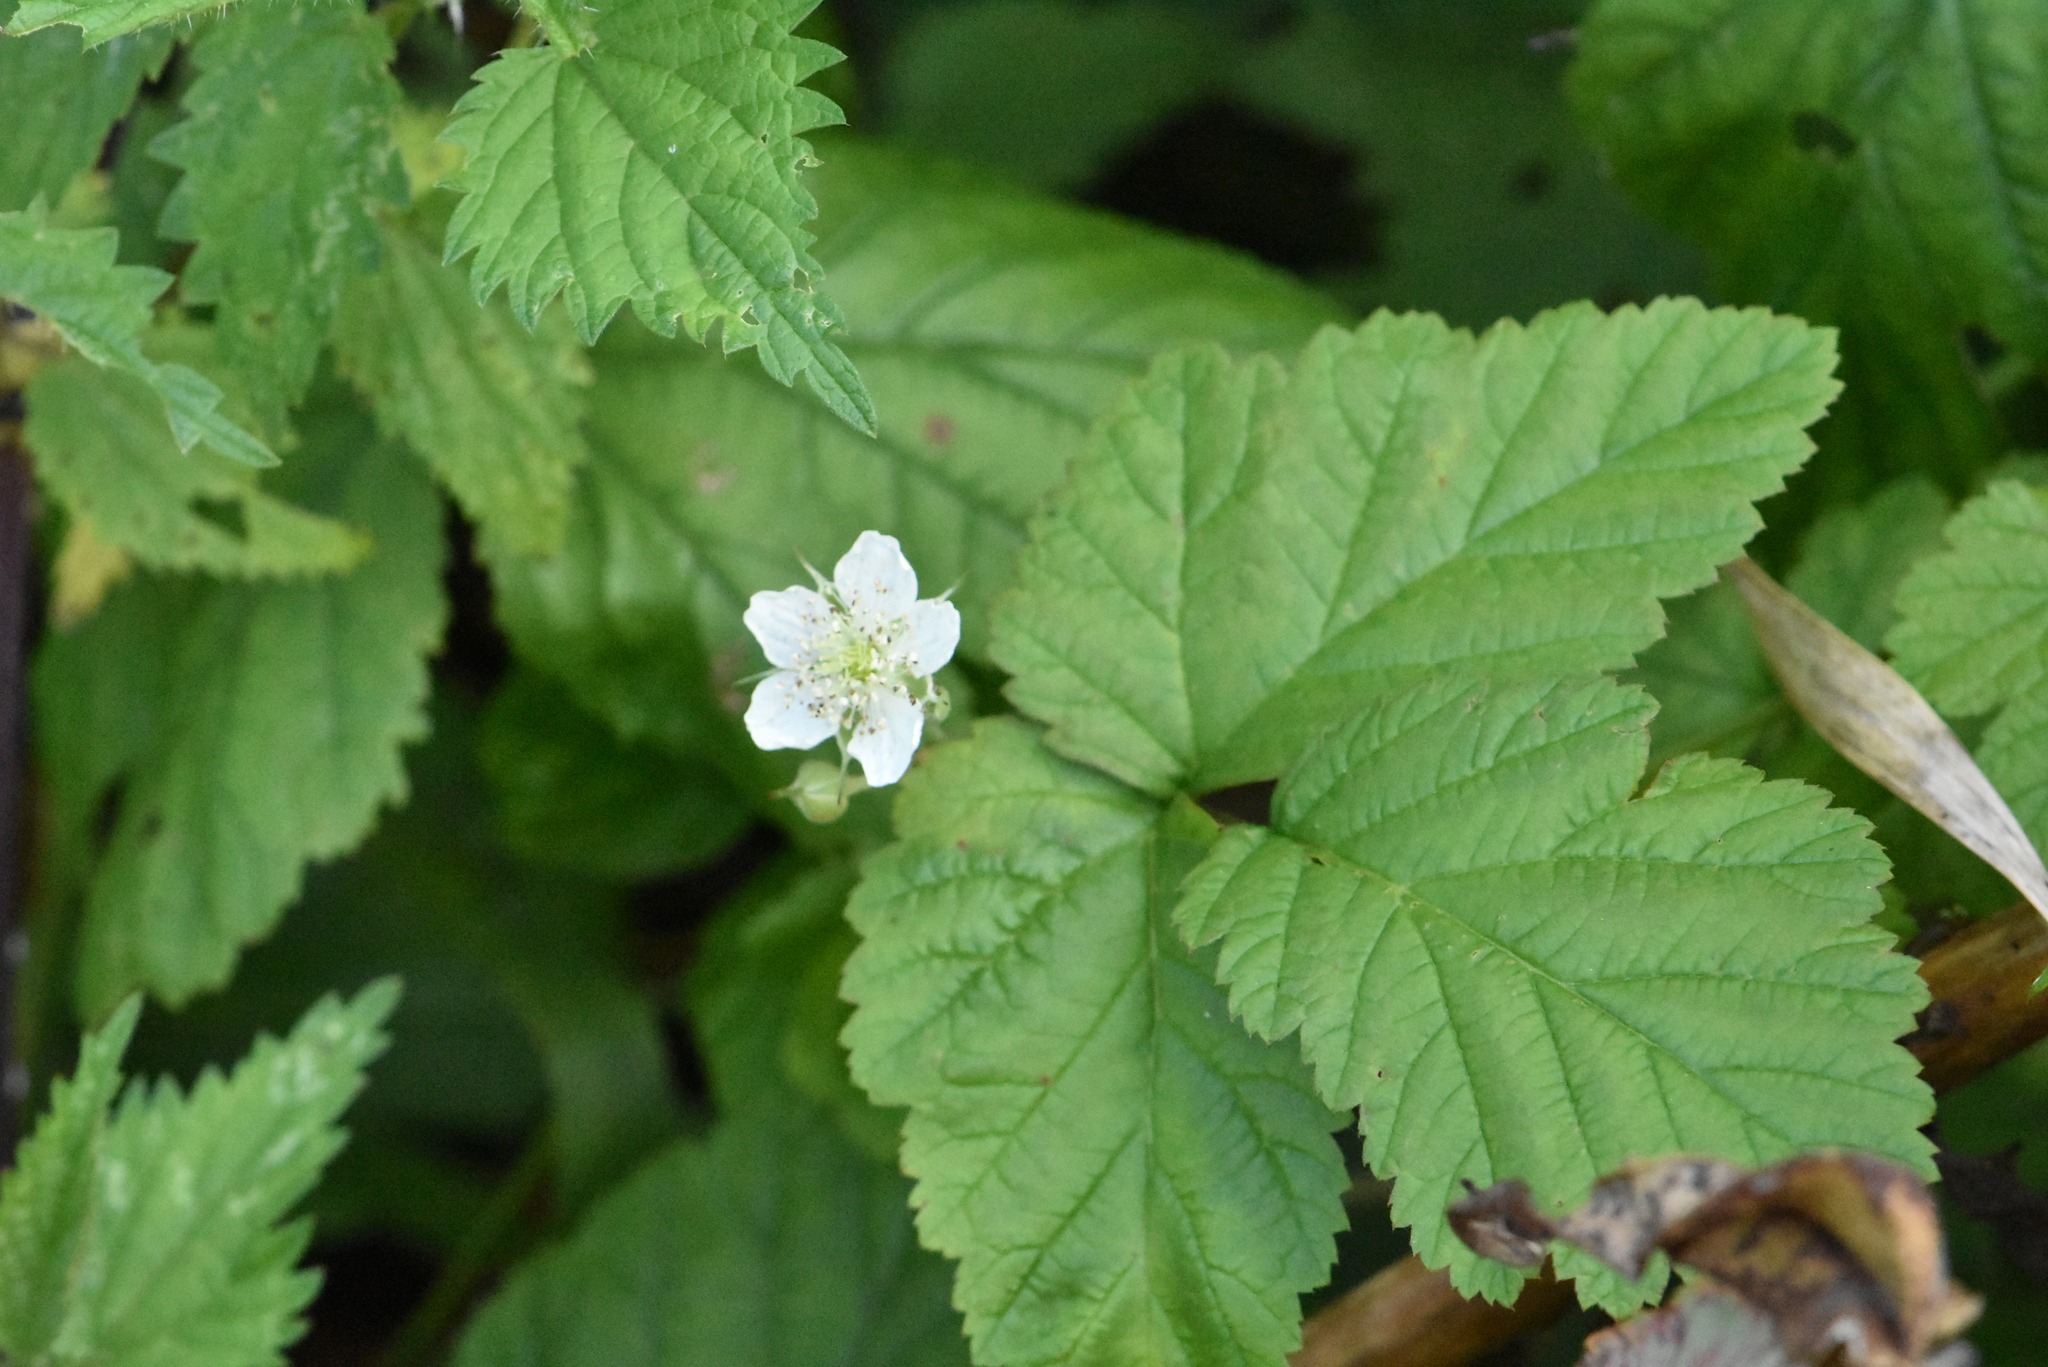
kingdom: Plantae
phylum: Tracheophyta
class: Magnoliopsida
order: Rosales
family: Rosaceae
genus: Rubus
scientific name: Rubus caesius
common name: Dewberry
